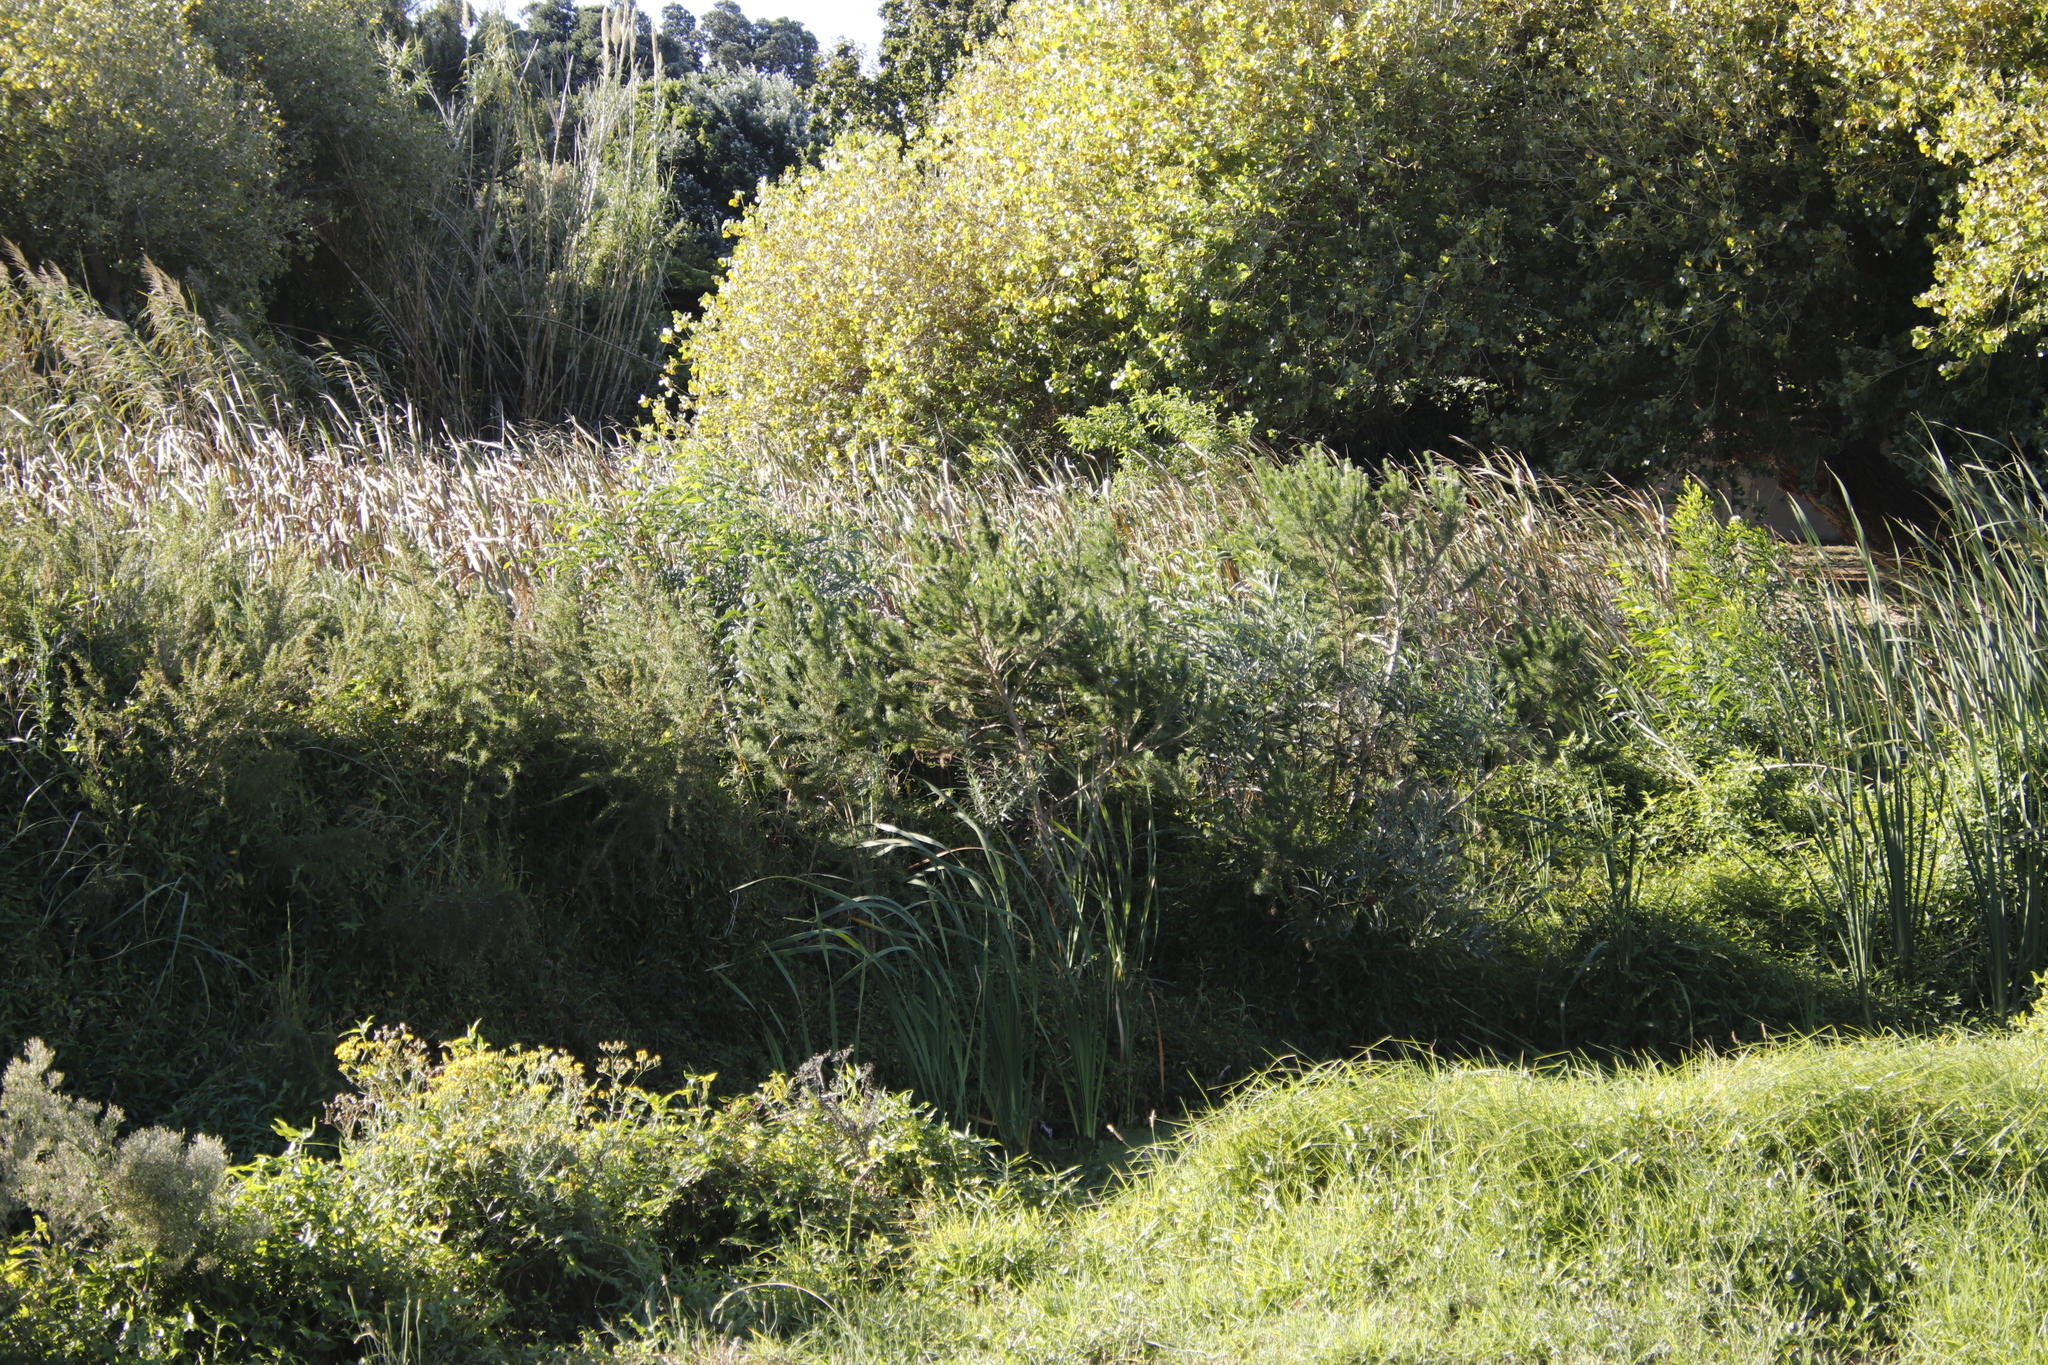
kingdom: Plantae
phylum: Tracheophyta
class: Magnoliopsida
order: Fabales
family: Fabaceae
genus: Psoralea
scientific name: Psoralea pinnata
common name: African scurfpea
